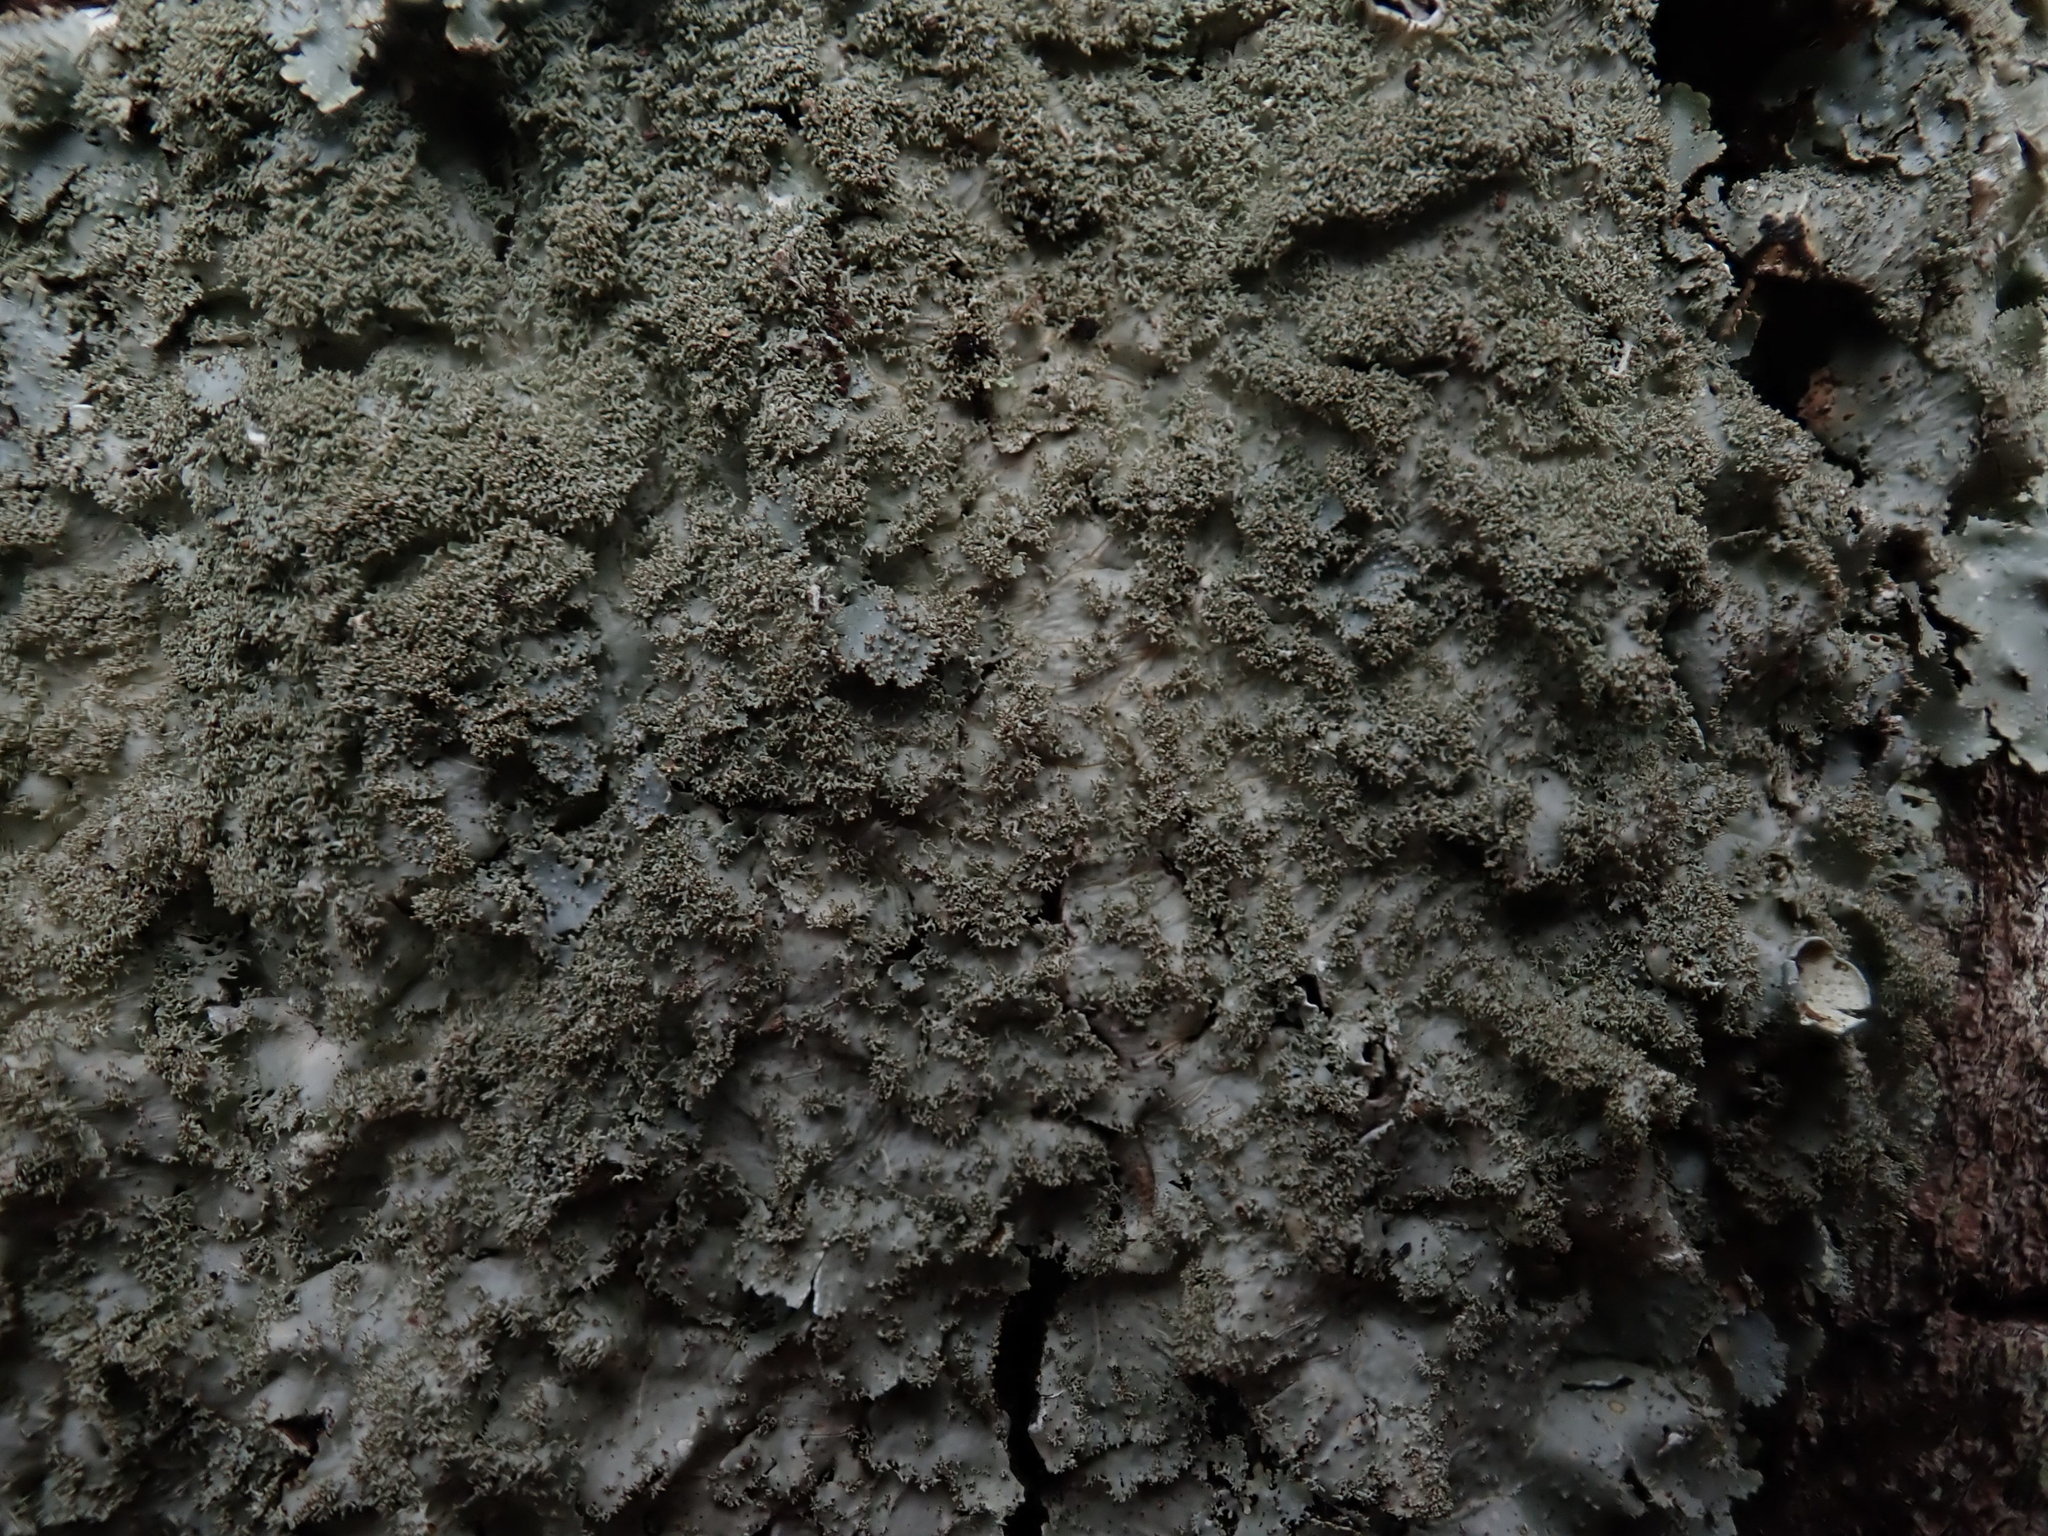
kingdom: Fungi
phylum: Ascomycota
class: Lecanoromycetes
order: Lecanorales
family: Parmeliaceae
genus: Punctelia
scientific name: Punctelia rudecta
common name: Rough speckled shield lichen
